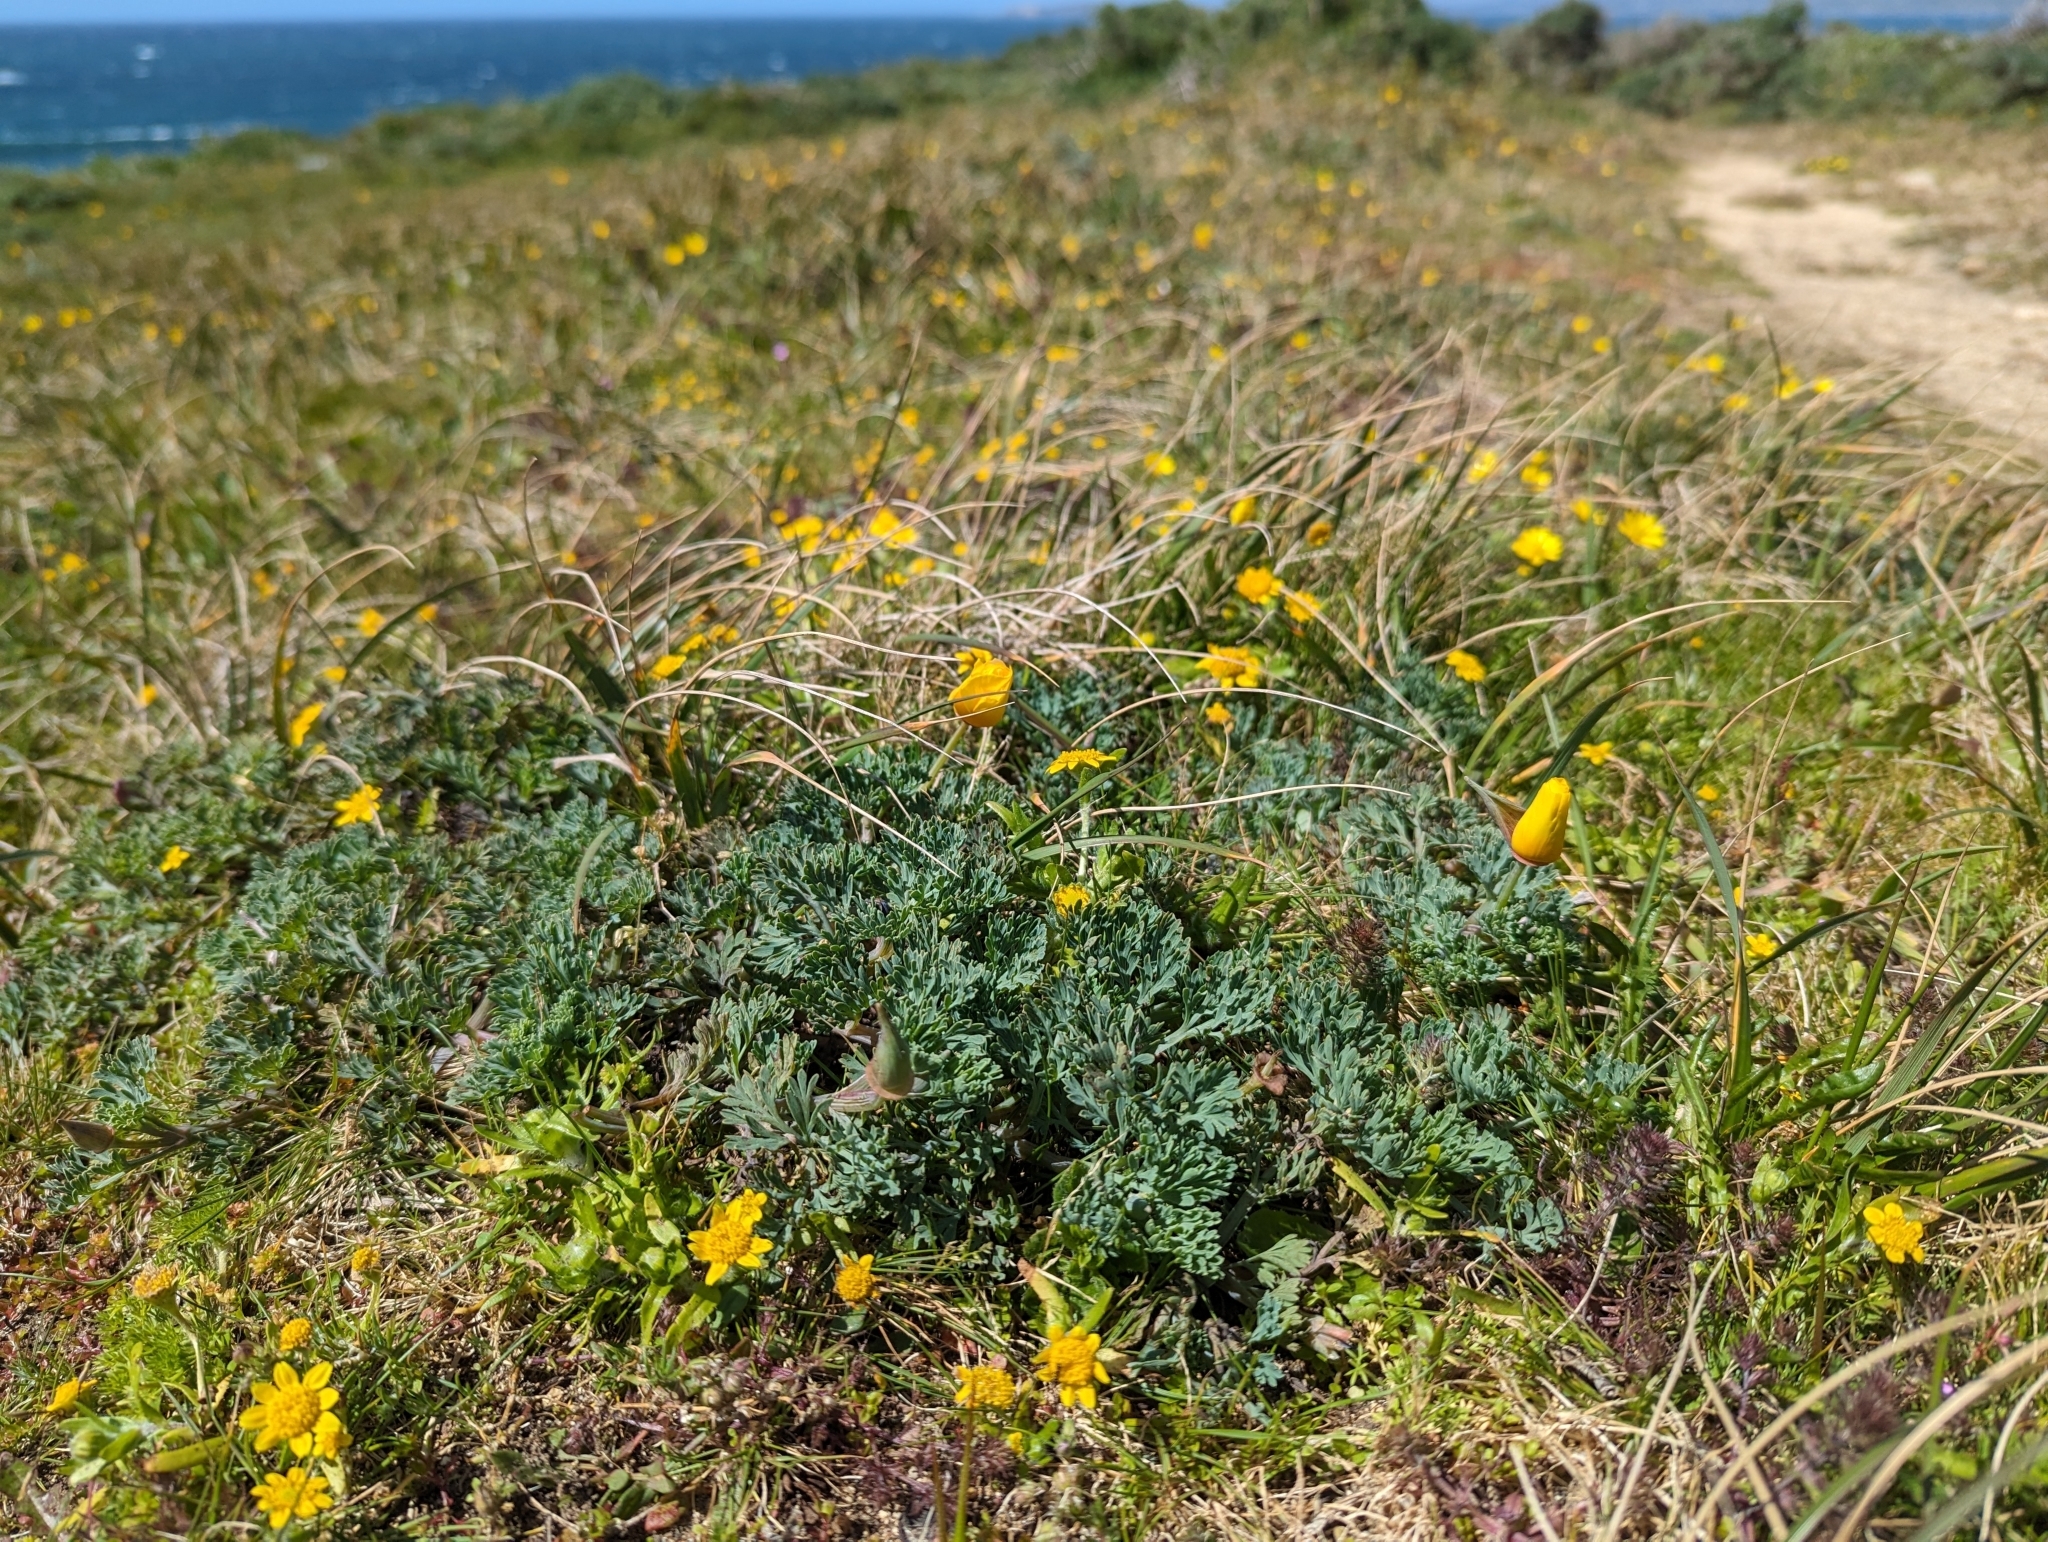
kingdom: Plantae
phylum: Tracheophyta
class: Magnoliopsida
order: Ranunculales
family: Papaveraceae
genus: Eschscholzia
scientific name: Eschscholzia californica
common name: California poppy
